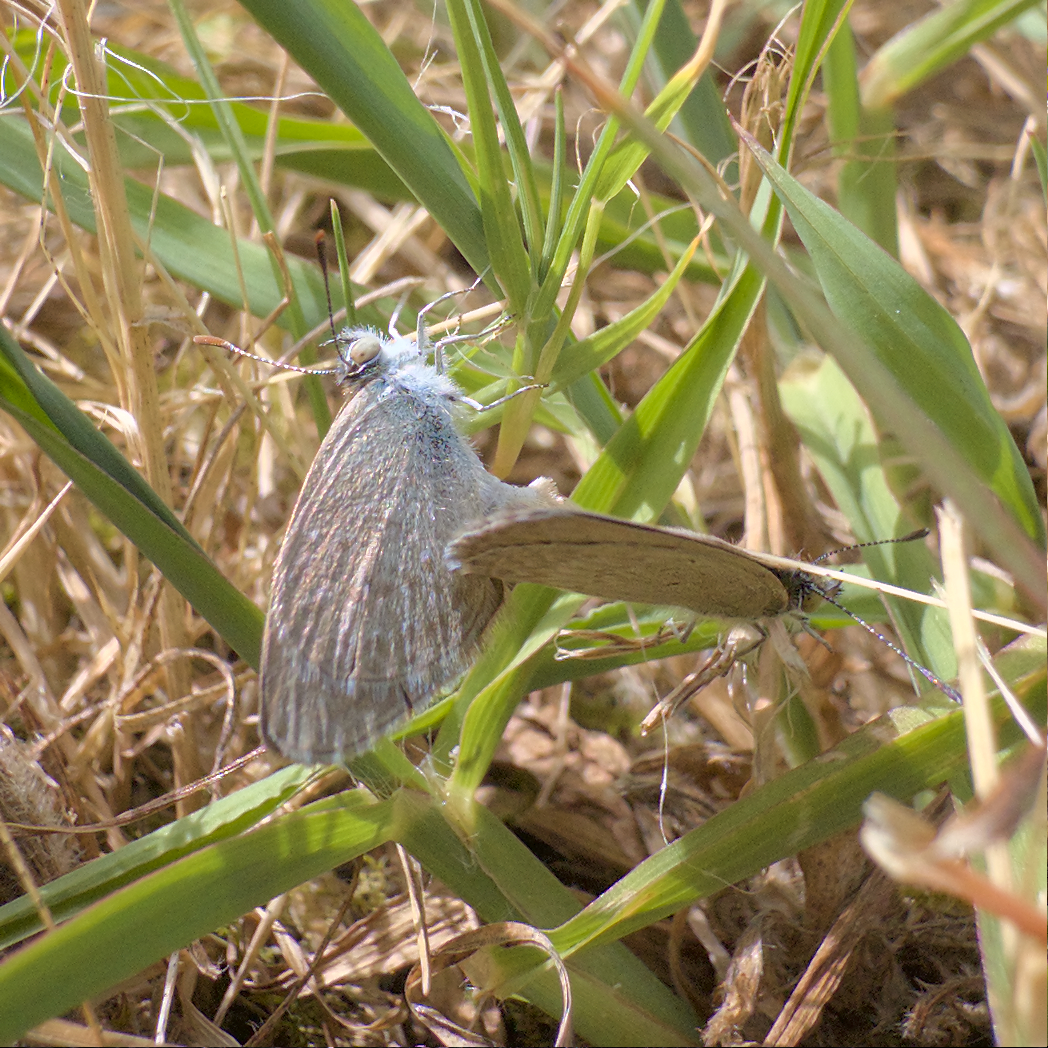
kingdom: Animalia
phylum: Arthropoda
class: Insecta
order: Lepidoptera
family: Lycaenidae
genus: Zizina
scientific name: Zizina otis
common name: Lesser grass blue
